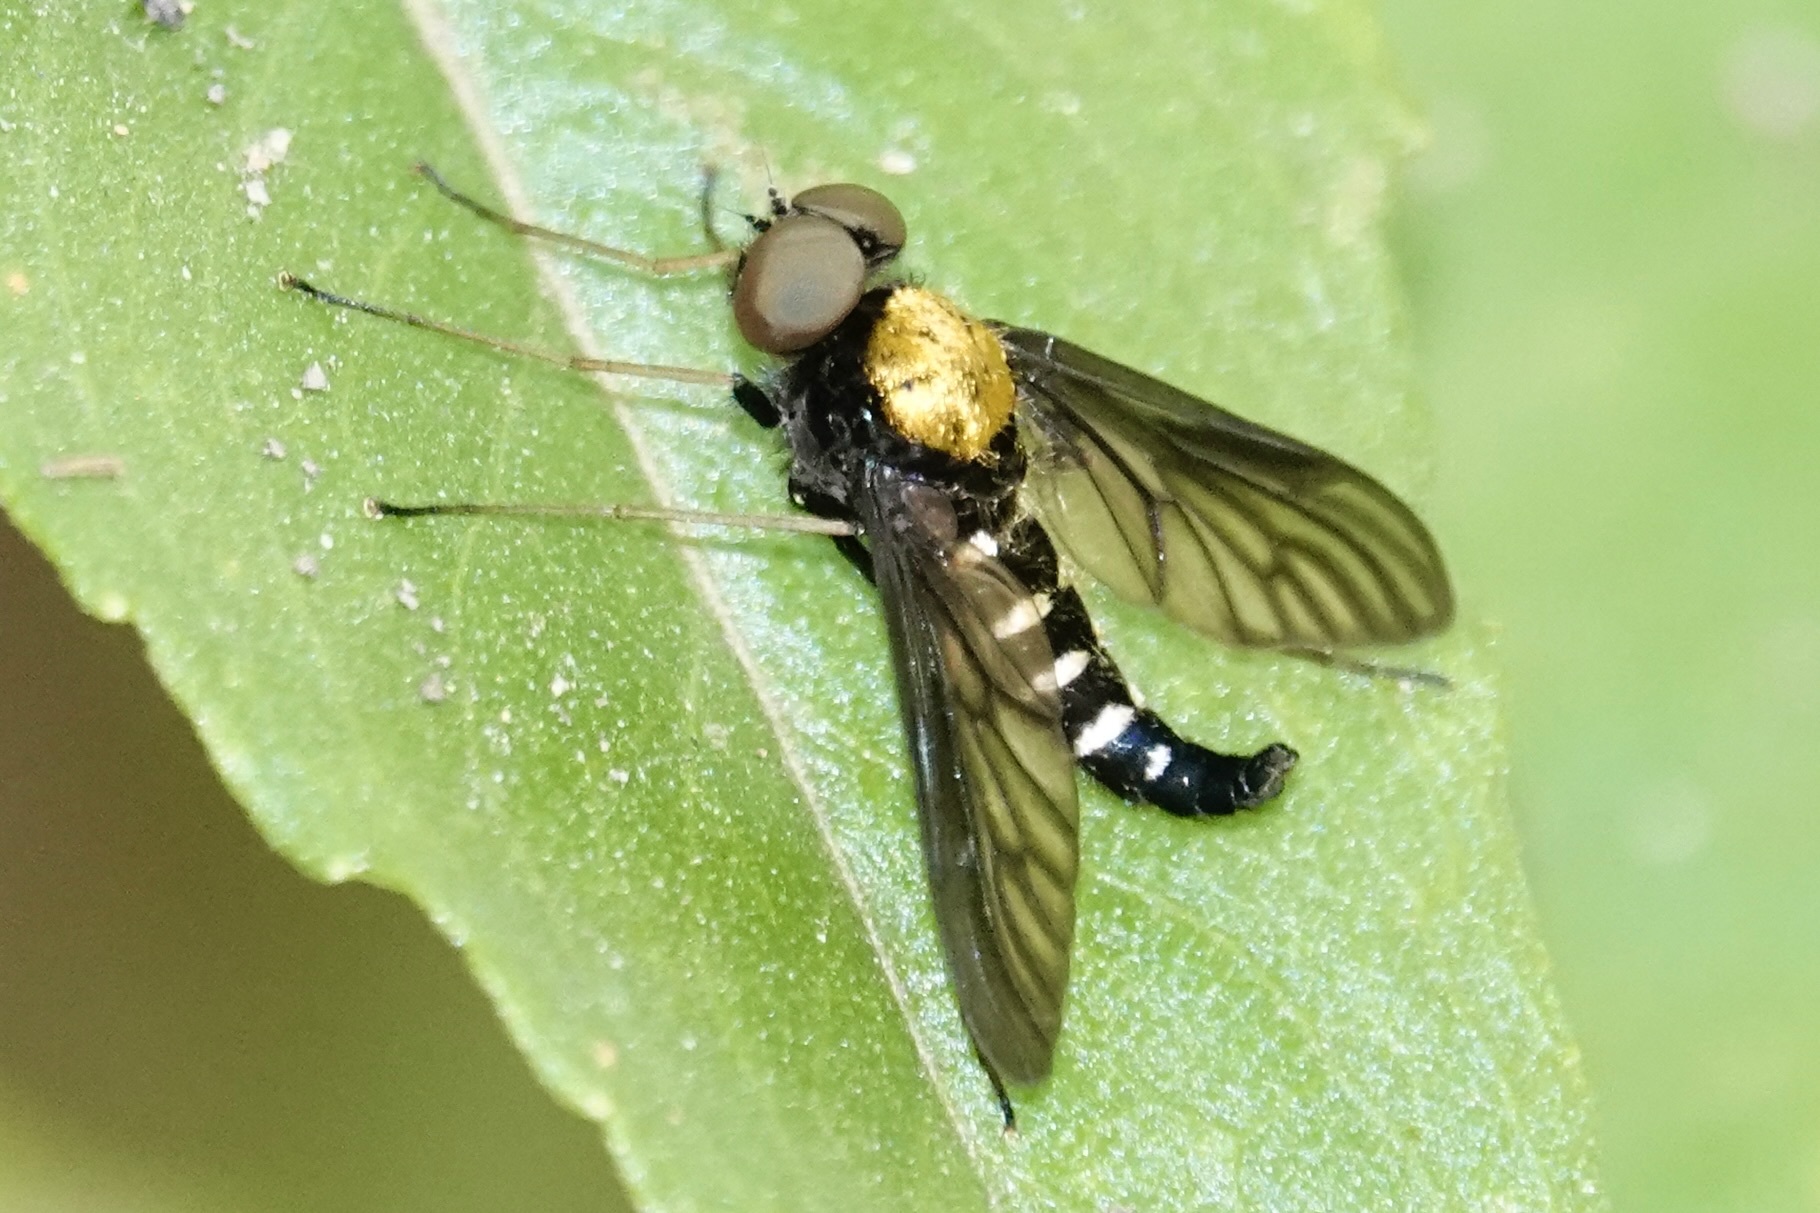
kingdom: Animalia
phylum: Arthropoda
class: Insecta
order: Diptera
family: Rhagionidae
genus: Chrysopilus
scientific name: Chrysopilus thoracicus
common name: Golden-backed snipe fly
